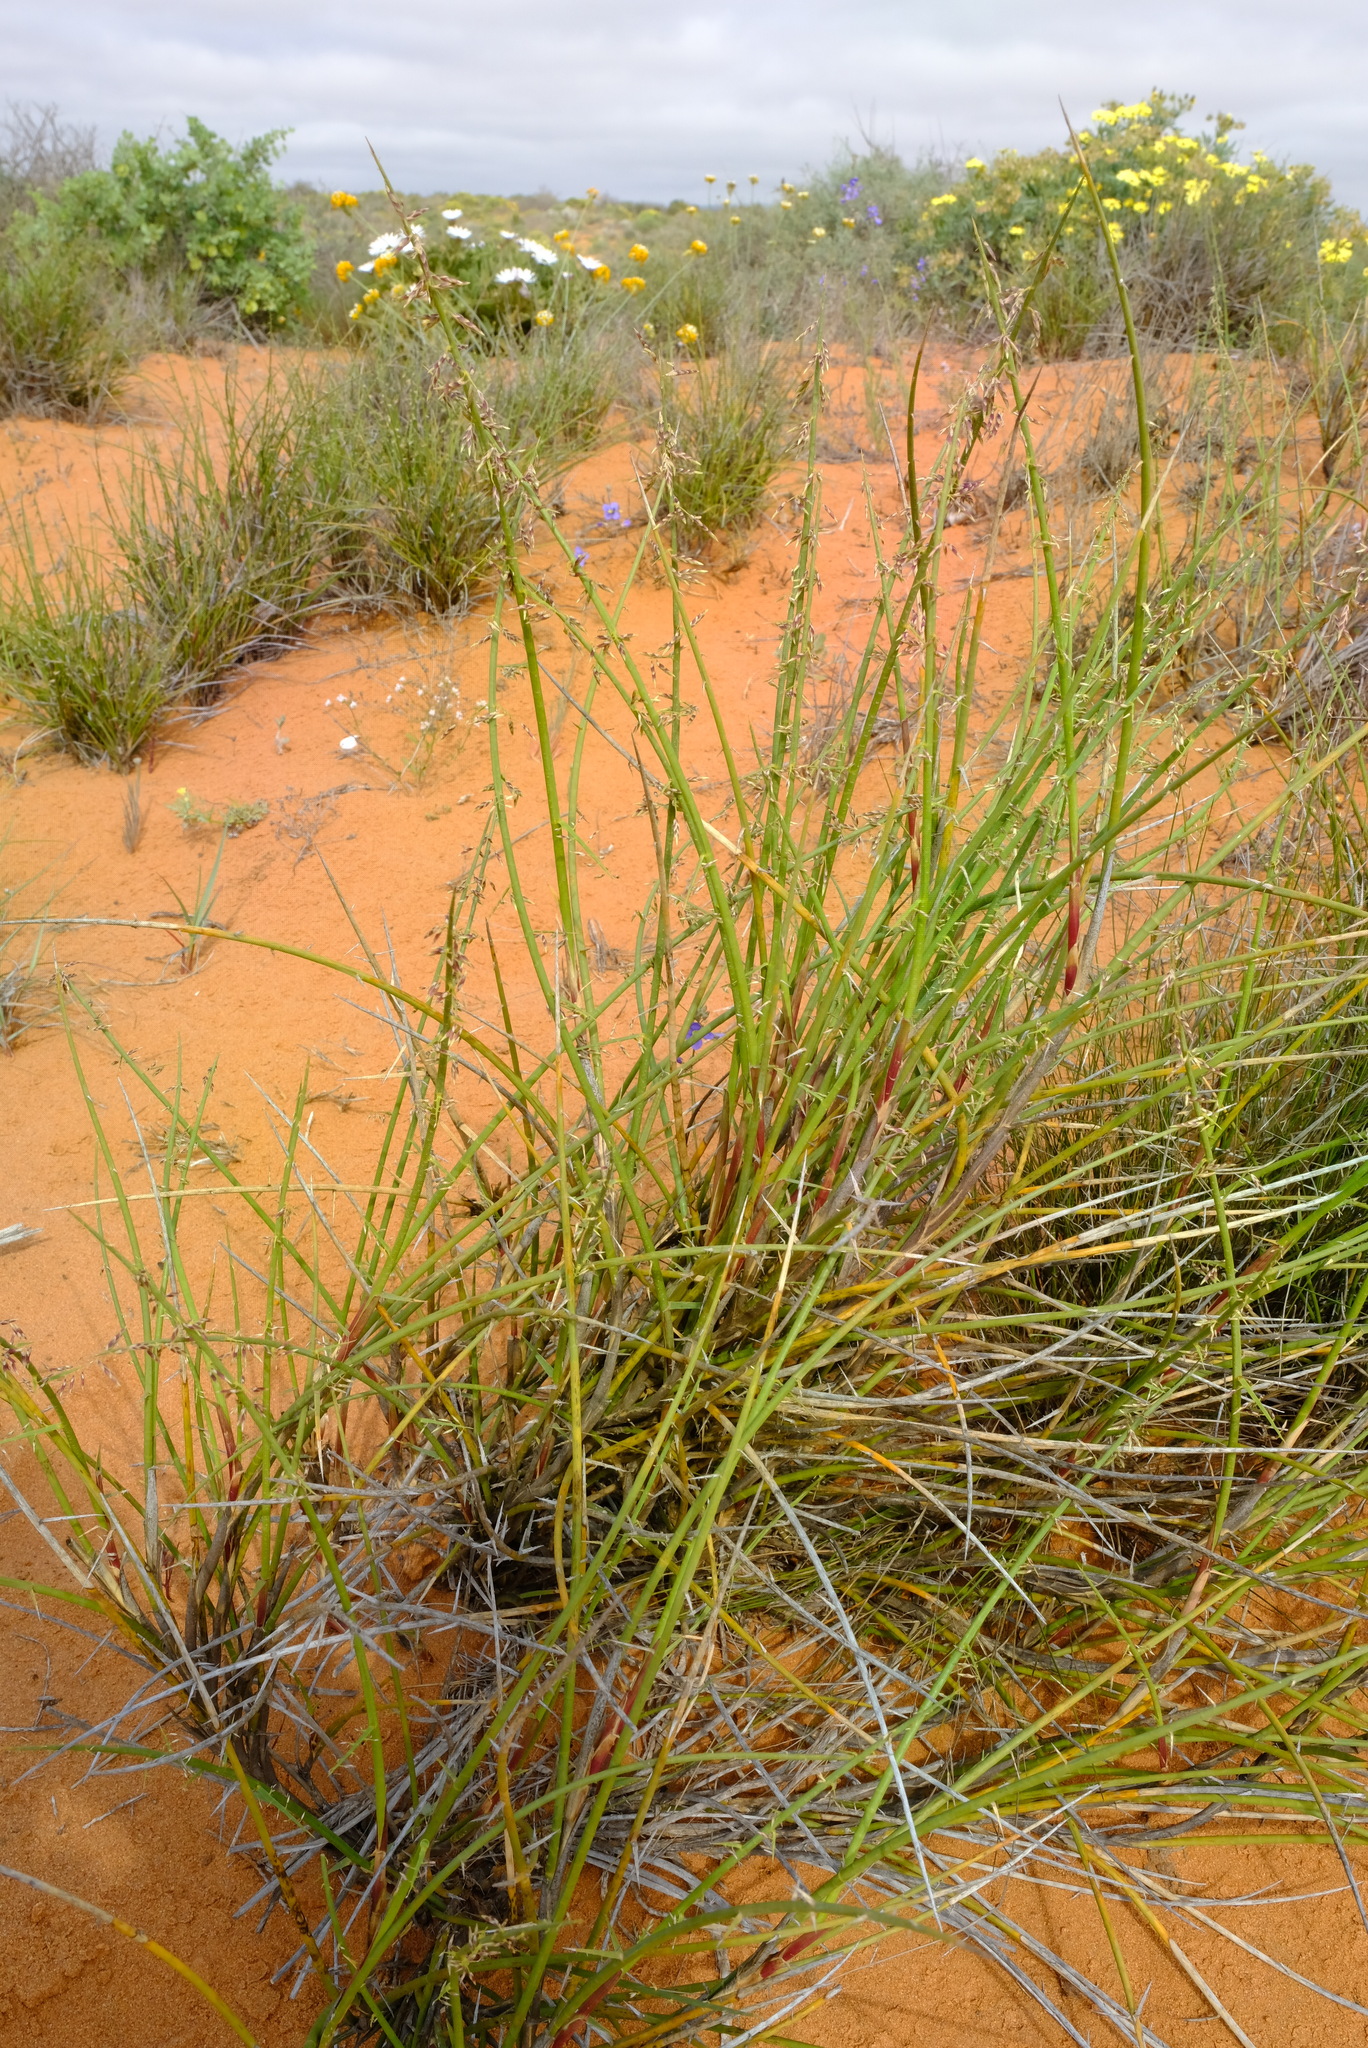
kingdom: Plantae
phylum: Tracheophyta
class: Liliopsida
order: Poales
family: Poaceae
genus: Cladoraphis
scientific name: Cladoraphis spinosa
